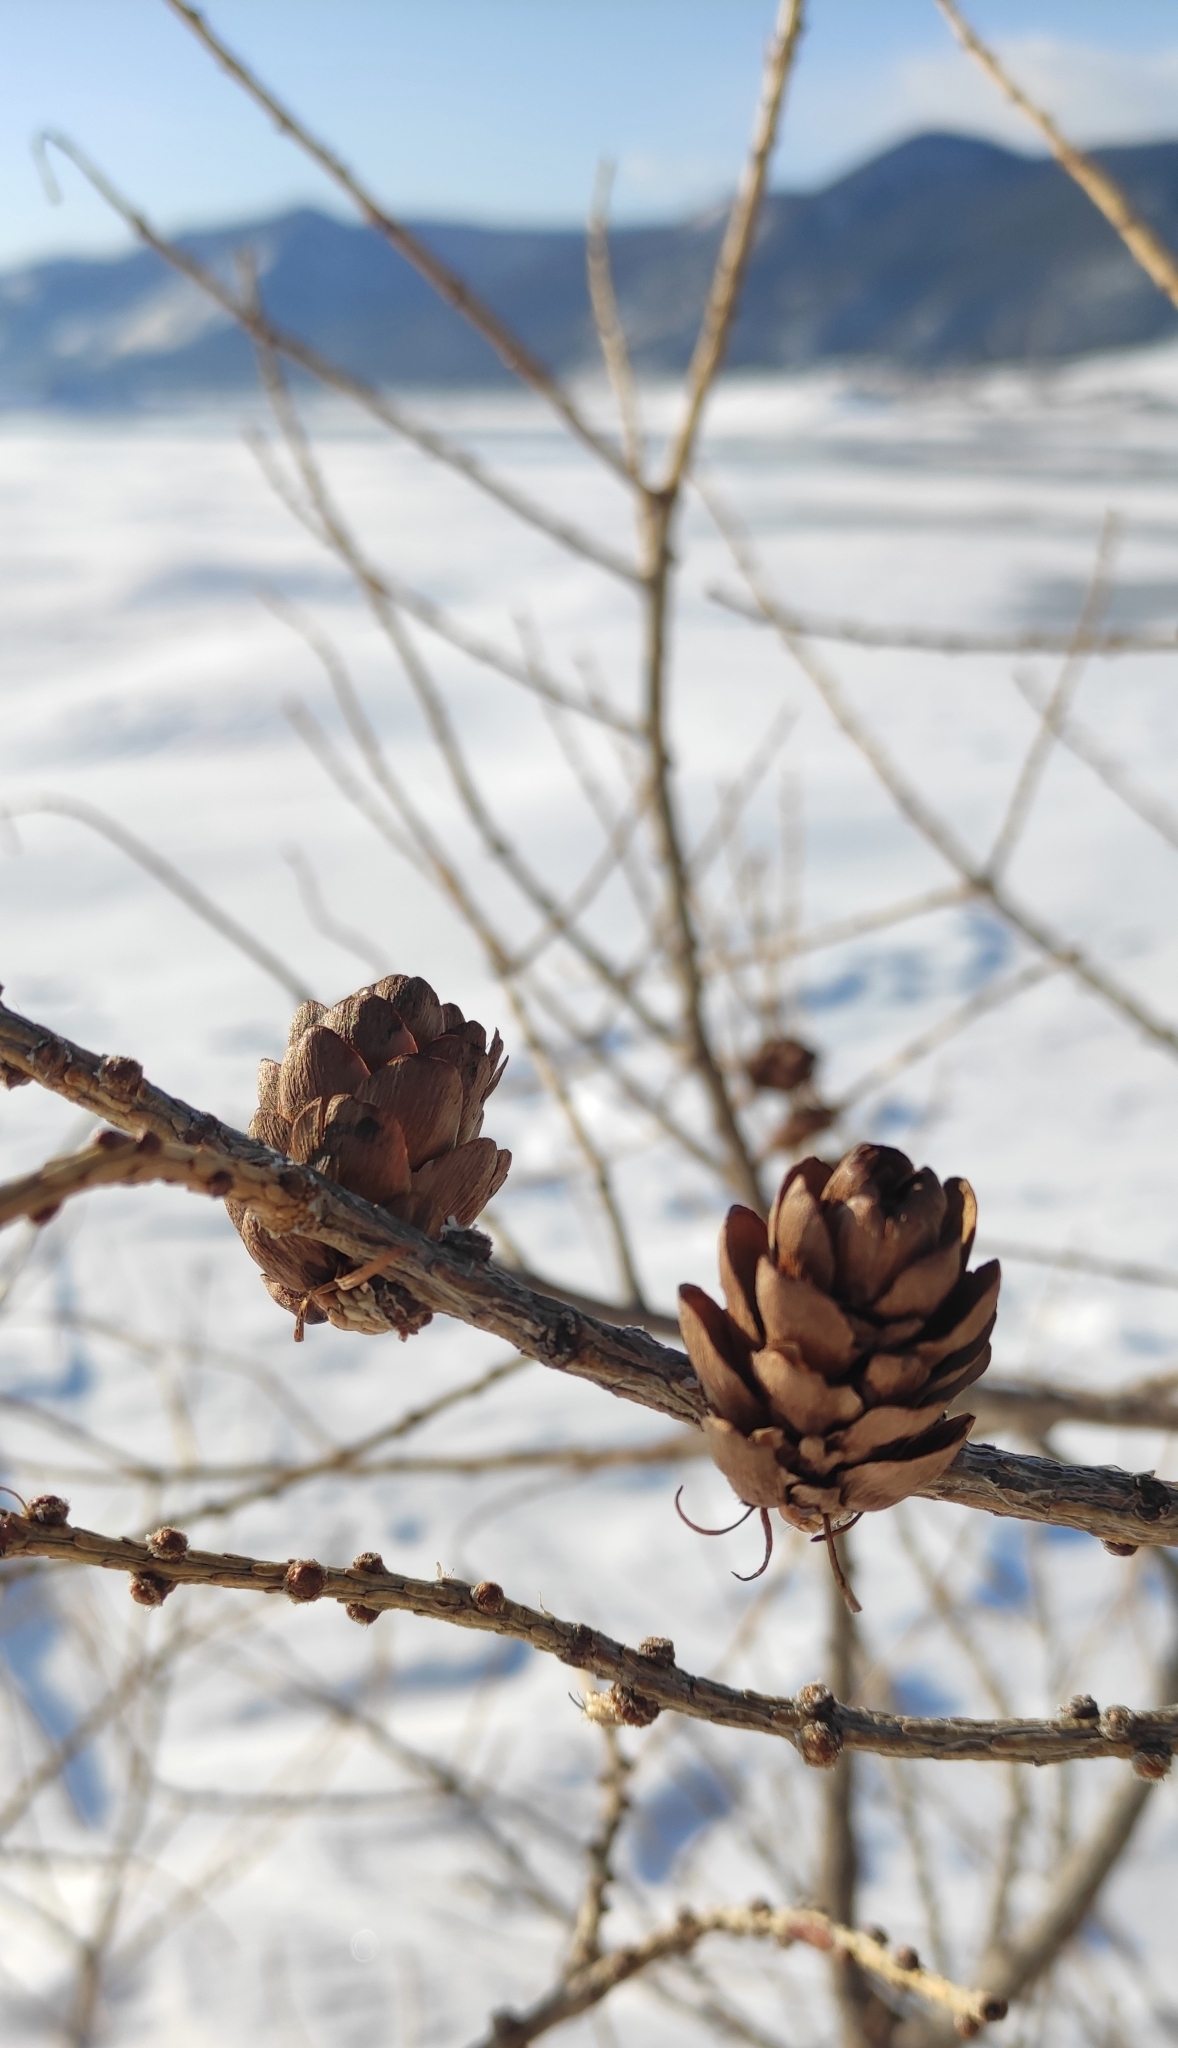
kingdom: Plantae
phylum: Tracheophyta
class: Pinopsida
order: Pinales
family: Pinaceae
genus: Larix
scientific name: Larix sibirica
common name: Siberian larch
